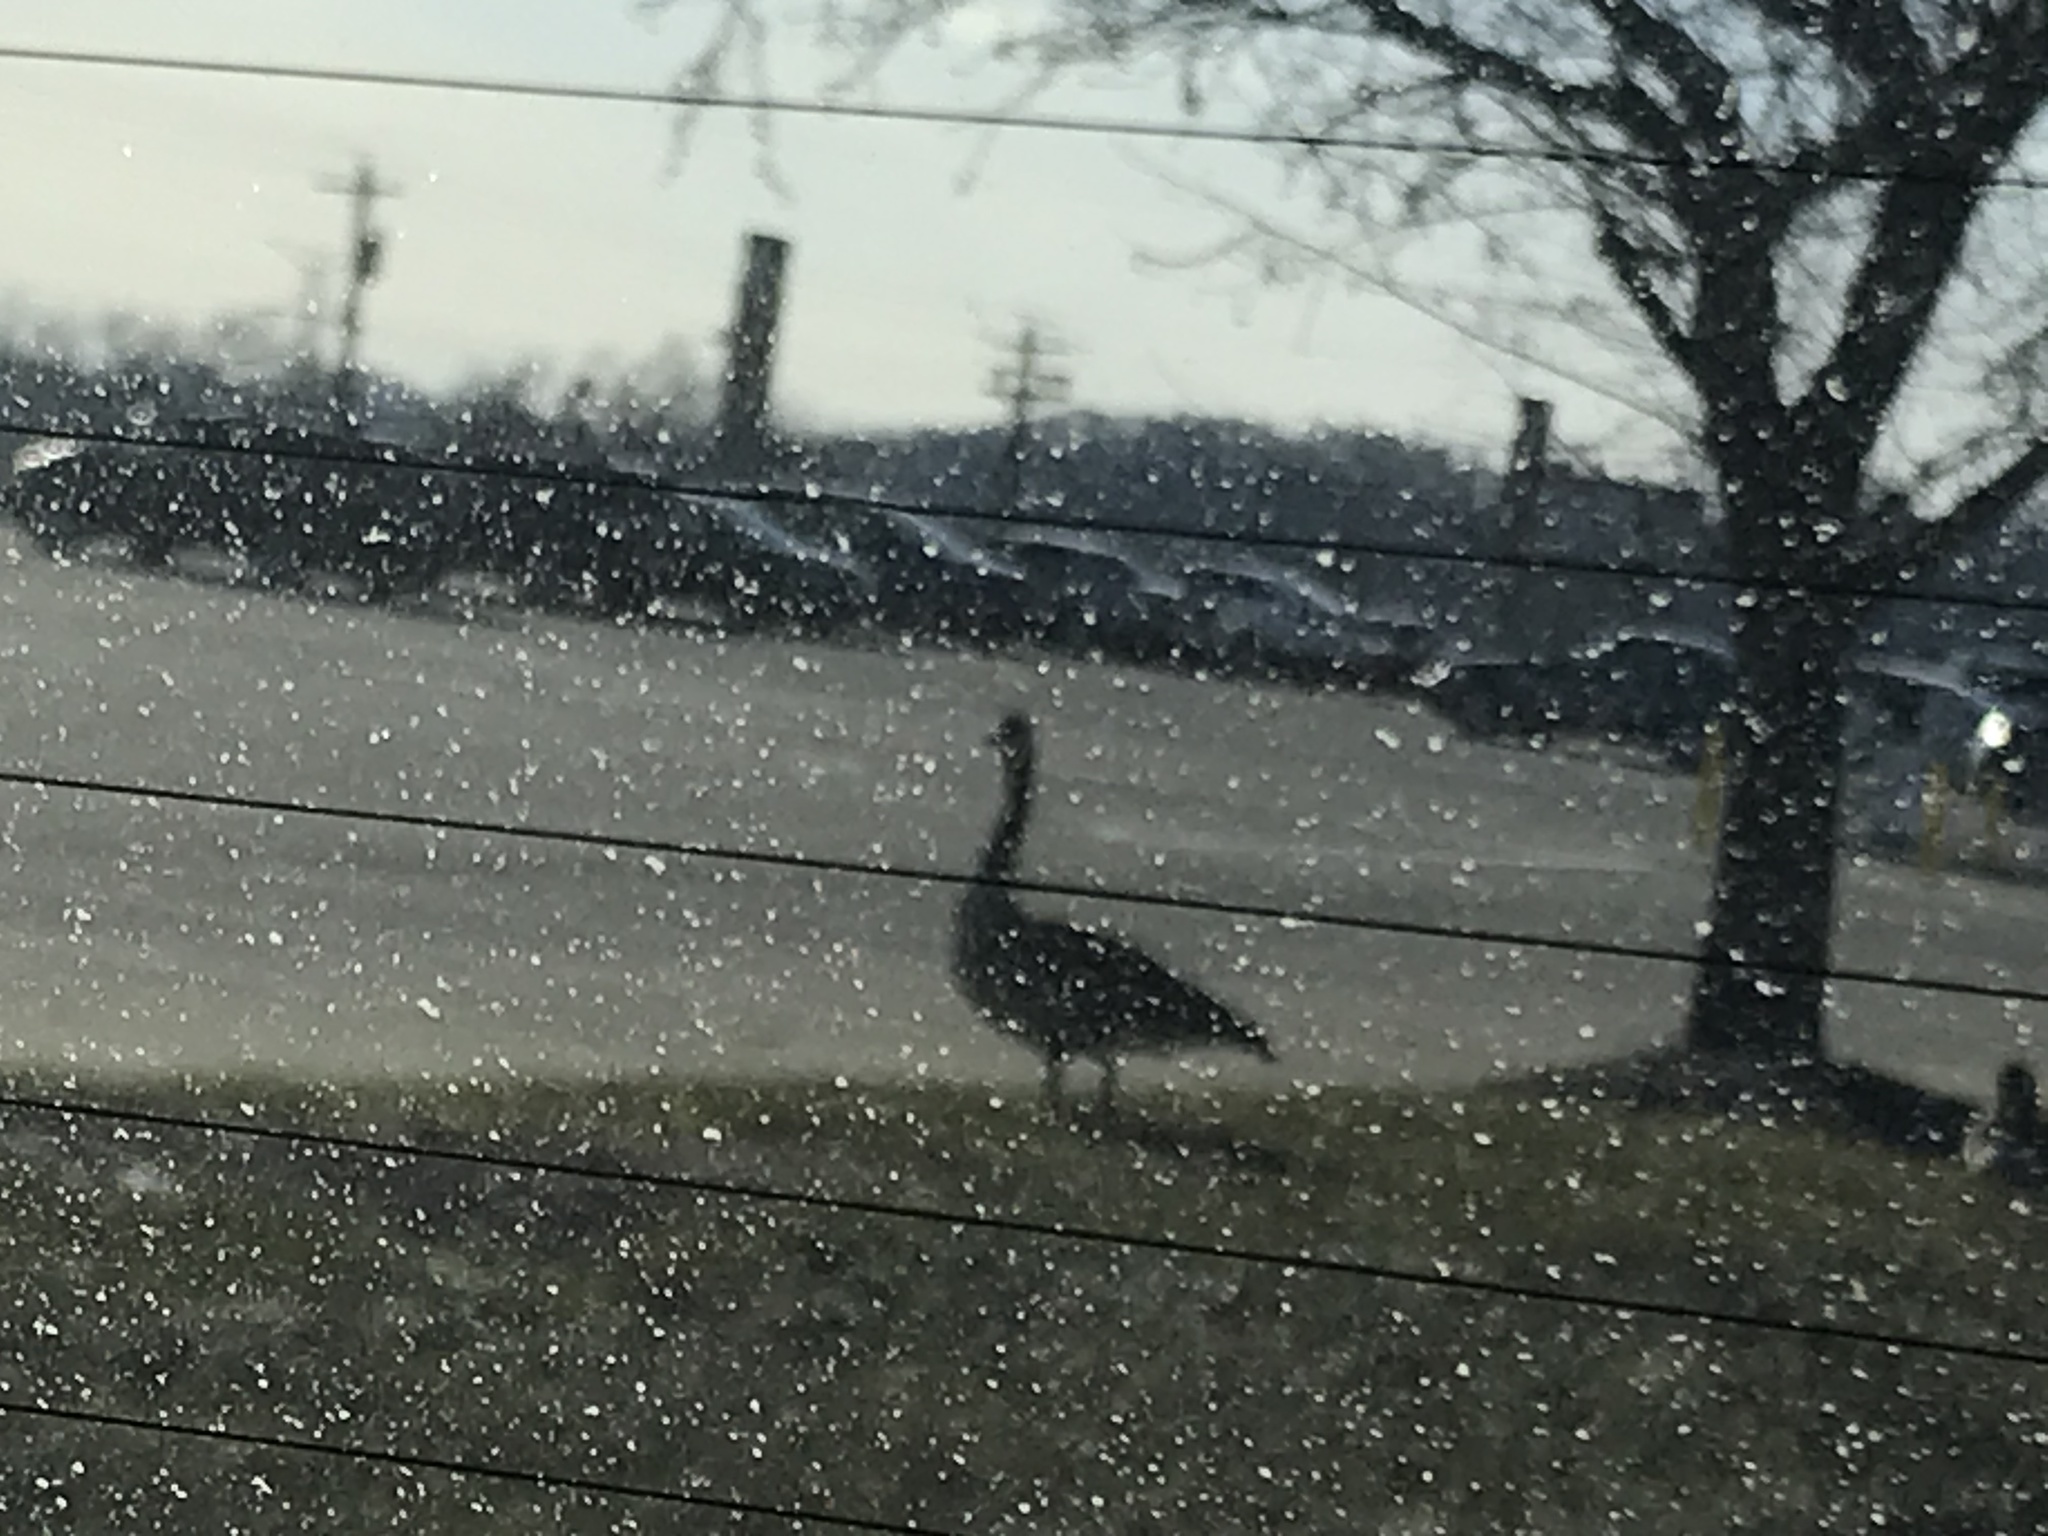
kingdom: Animalia
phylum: Chordata
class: Aves
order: Anseriformes
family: Anatidae
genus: Branta
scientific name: Branta canadensis
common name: Canada goose
